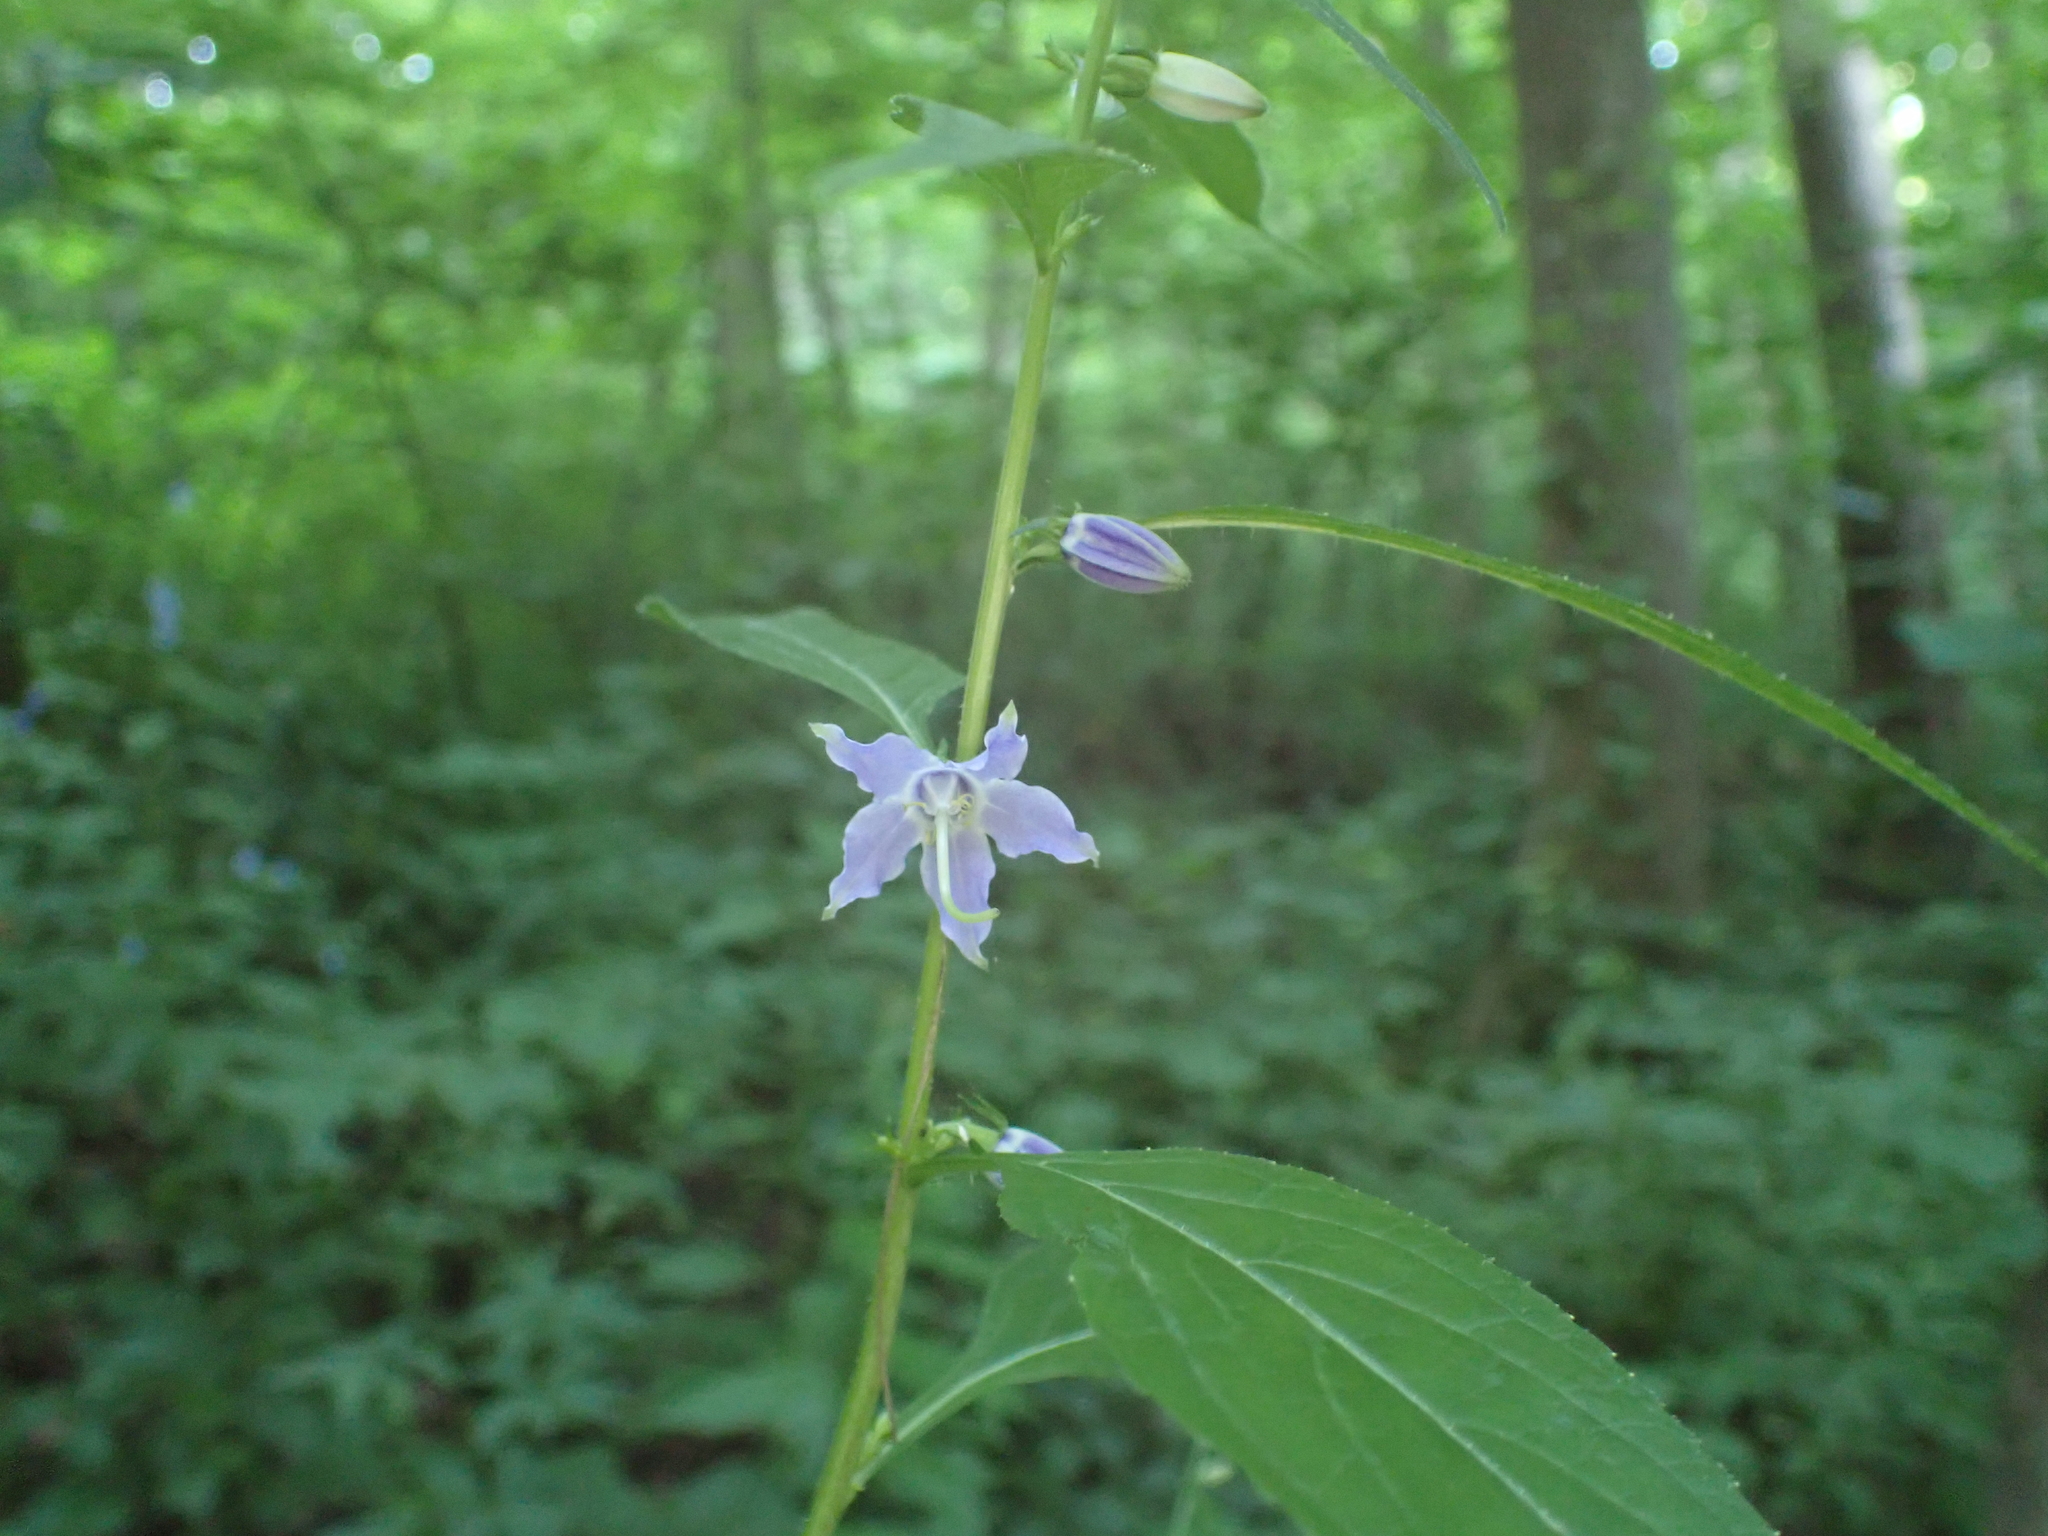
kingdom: Plantae
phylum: Tracheophyta
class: Magnoliopsida
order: Asterales
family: Campanulaceae
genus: Campanulastrum
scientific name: Campanulastrum americanum
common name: American bellflower
